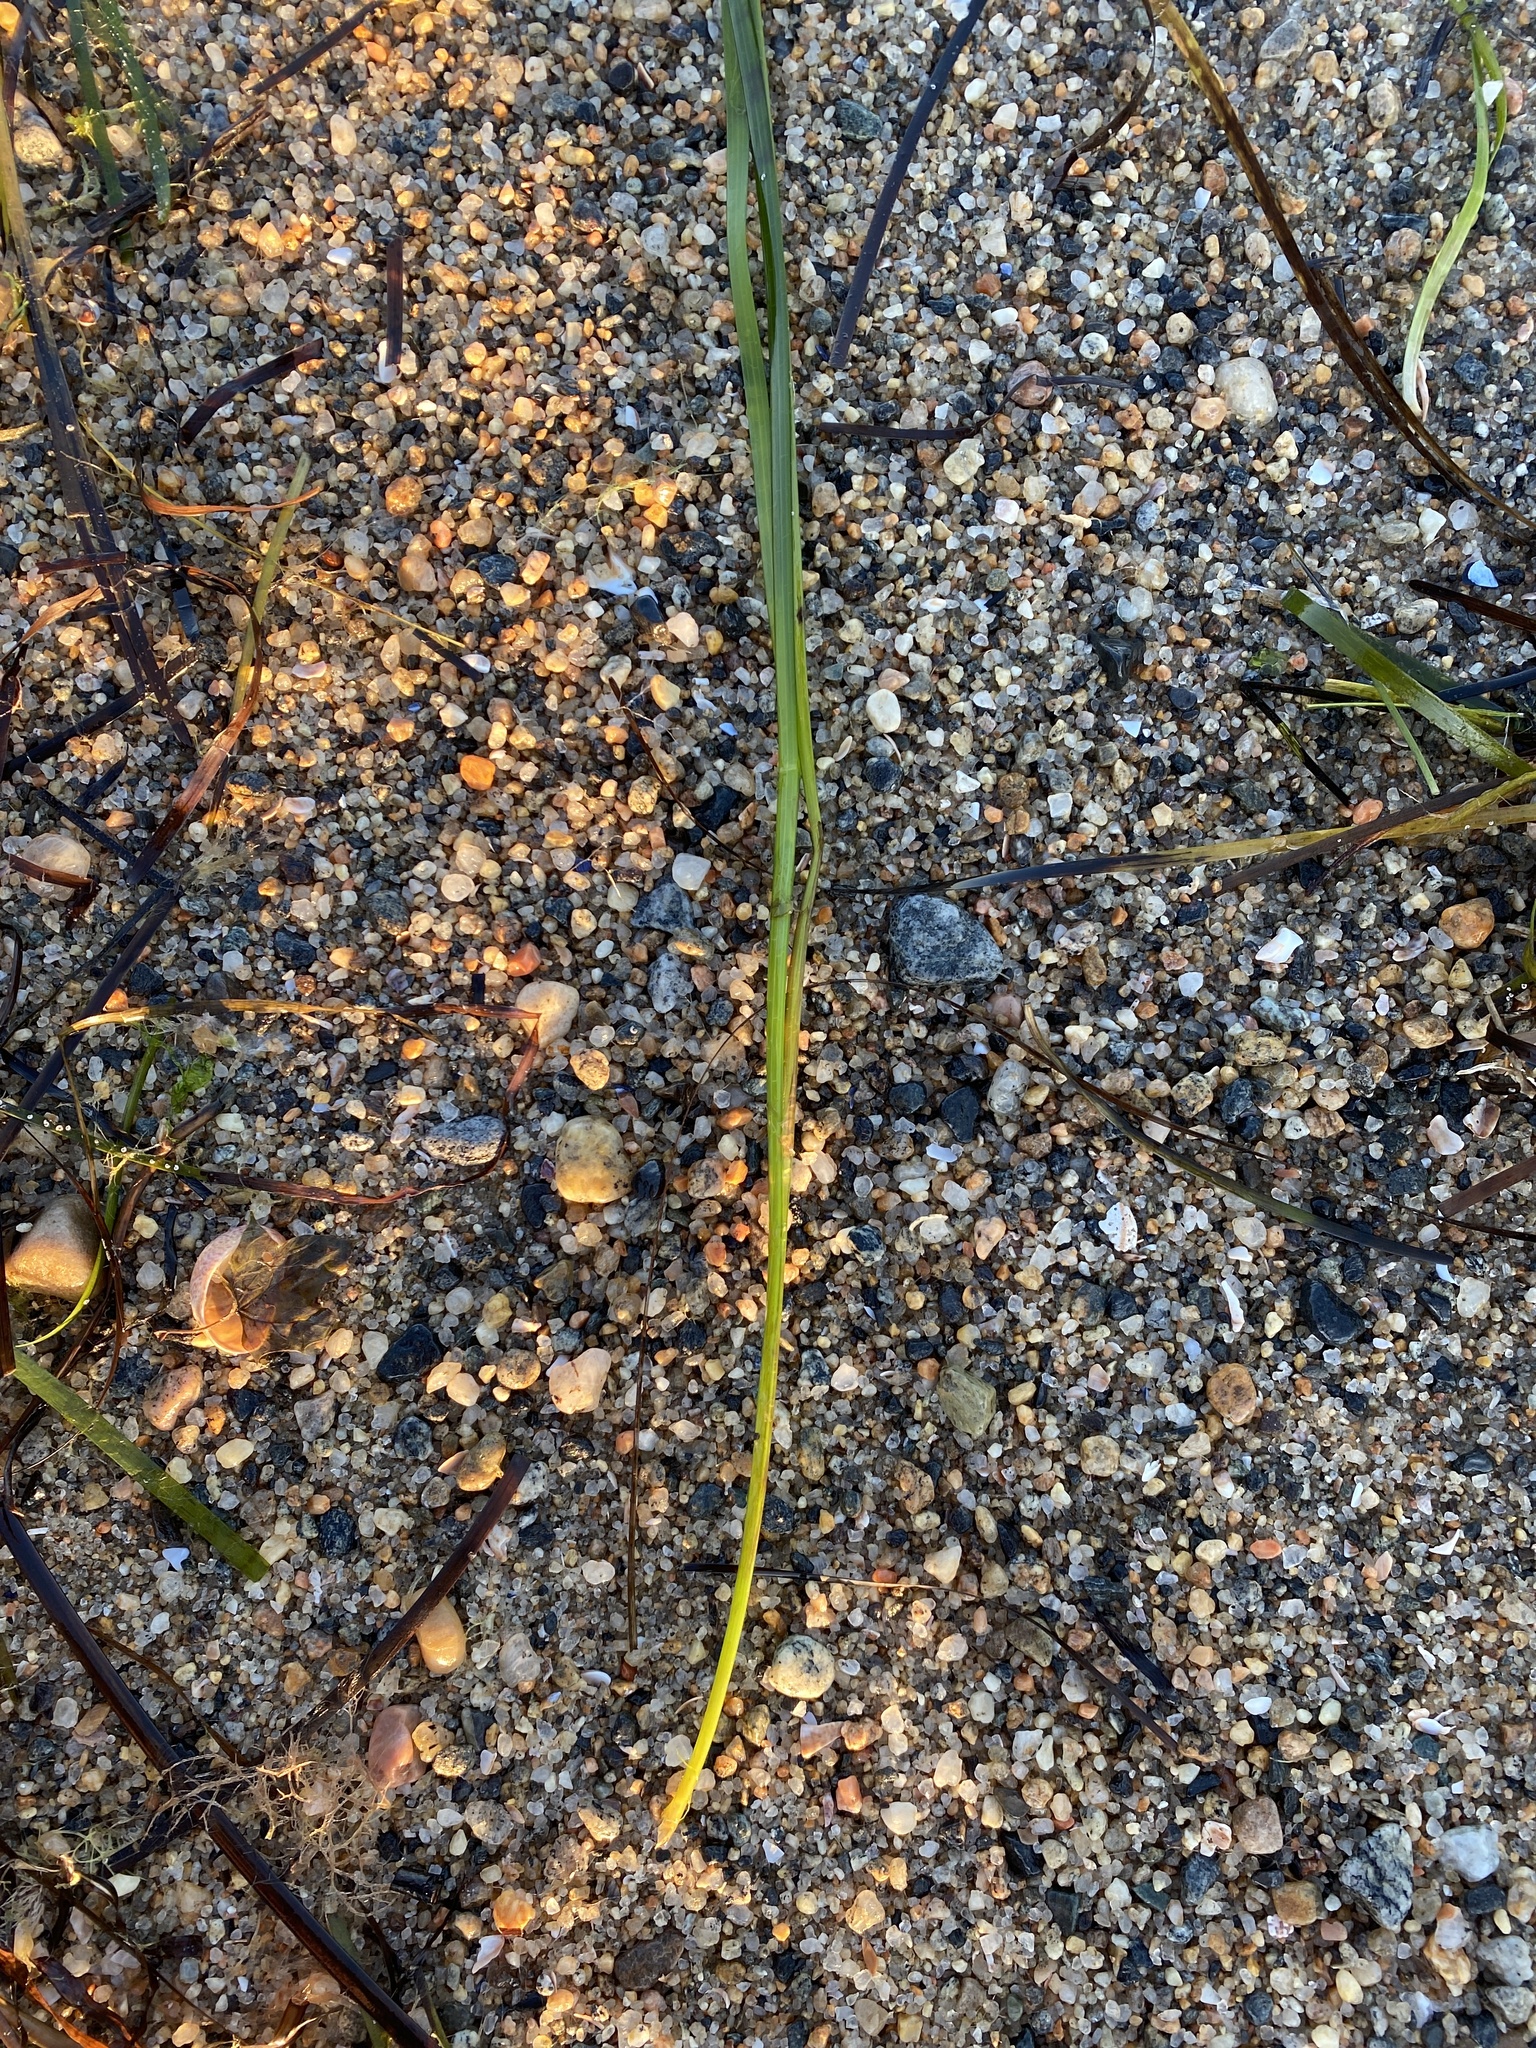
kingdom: Plantae
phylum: Tracheophyta
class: Liliopsida
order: Alismatales
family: Zosteraceae
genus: Zostera
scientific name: Zostera marina
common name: Eelgrass
